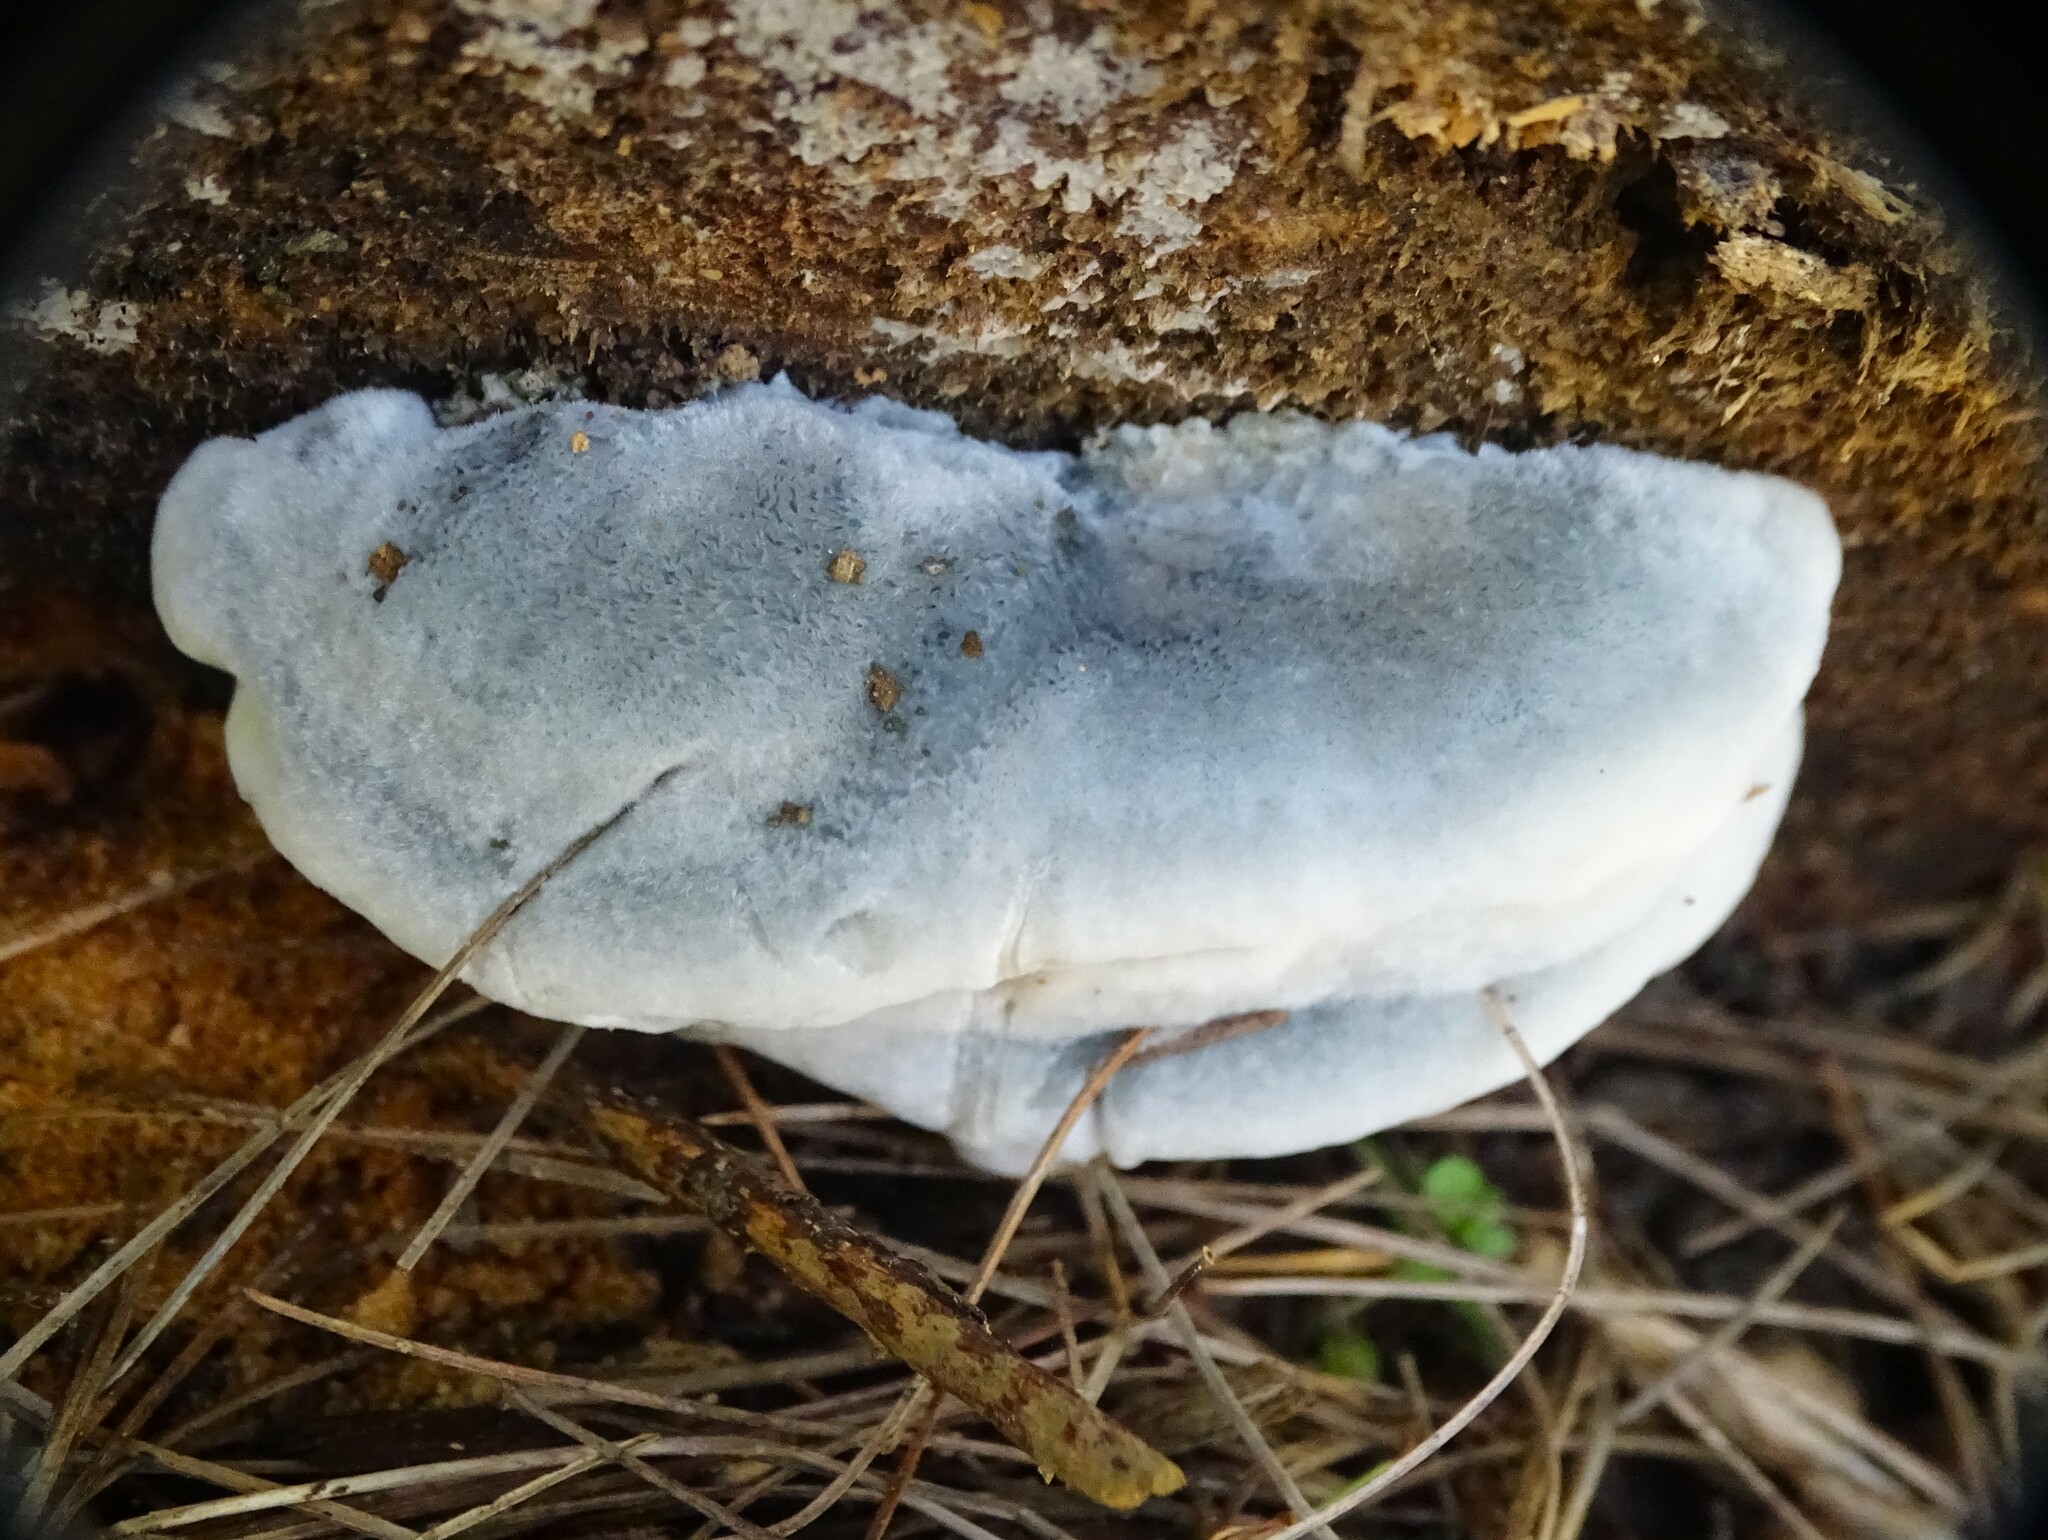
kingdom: Fungi
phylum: Basidiomycota
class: Agaricomycetes
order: Polyporales
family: Polyporaceae
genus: Cyanosporus
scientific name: Cyanosporus caesius
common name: Blue cheese polypore
